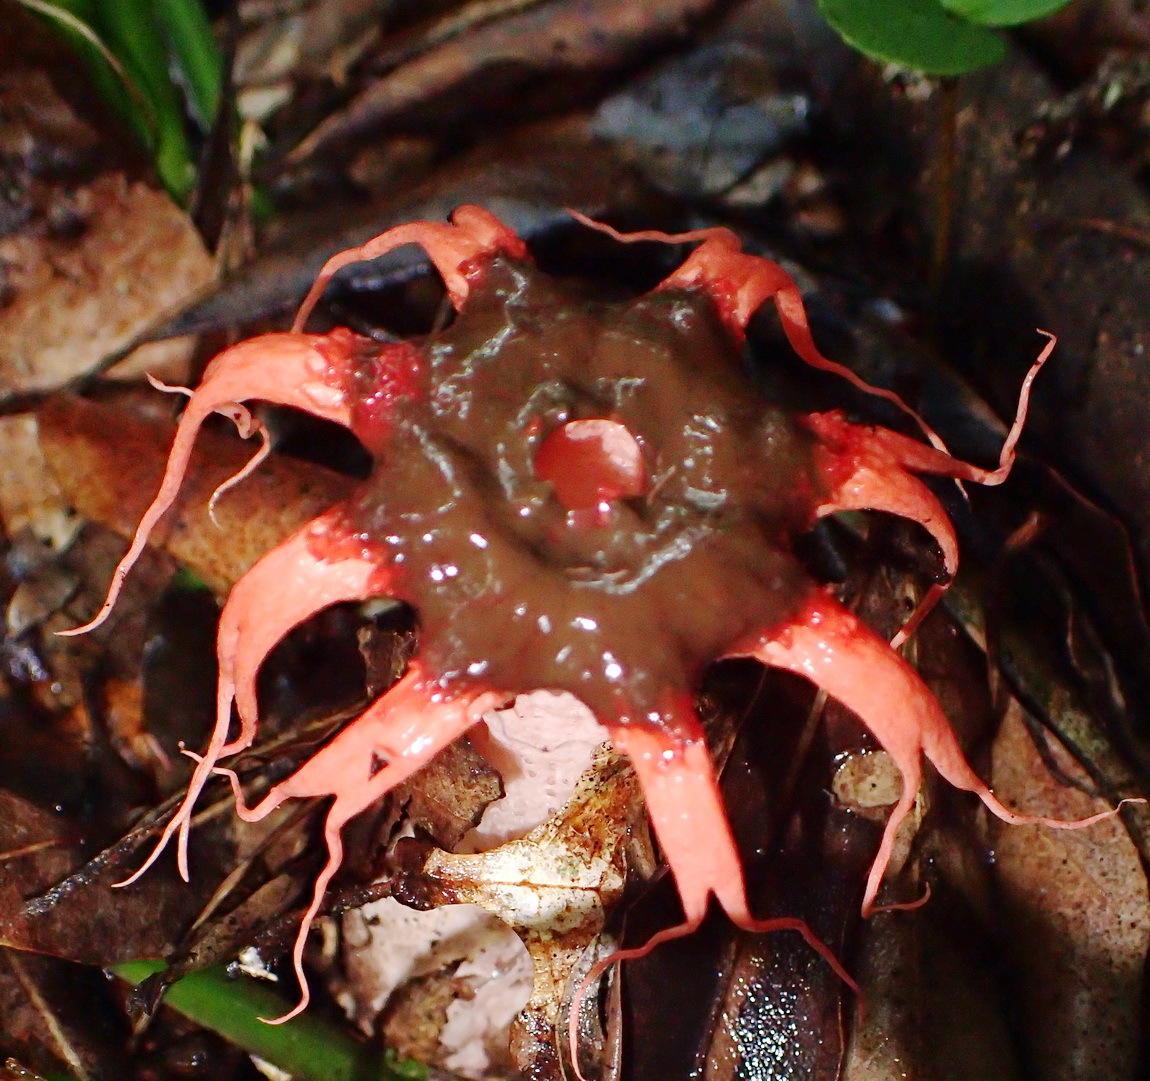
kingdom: Fungi
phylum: Basidiomycota
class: Agaricomycetes
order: Phallales
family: Phallaceae
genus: Aseroe
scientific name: Aseroe rubra
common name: Starfish fungus
